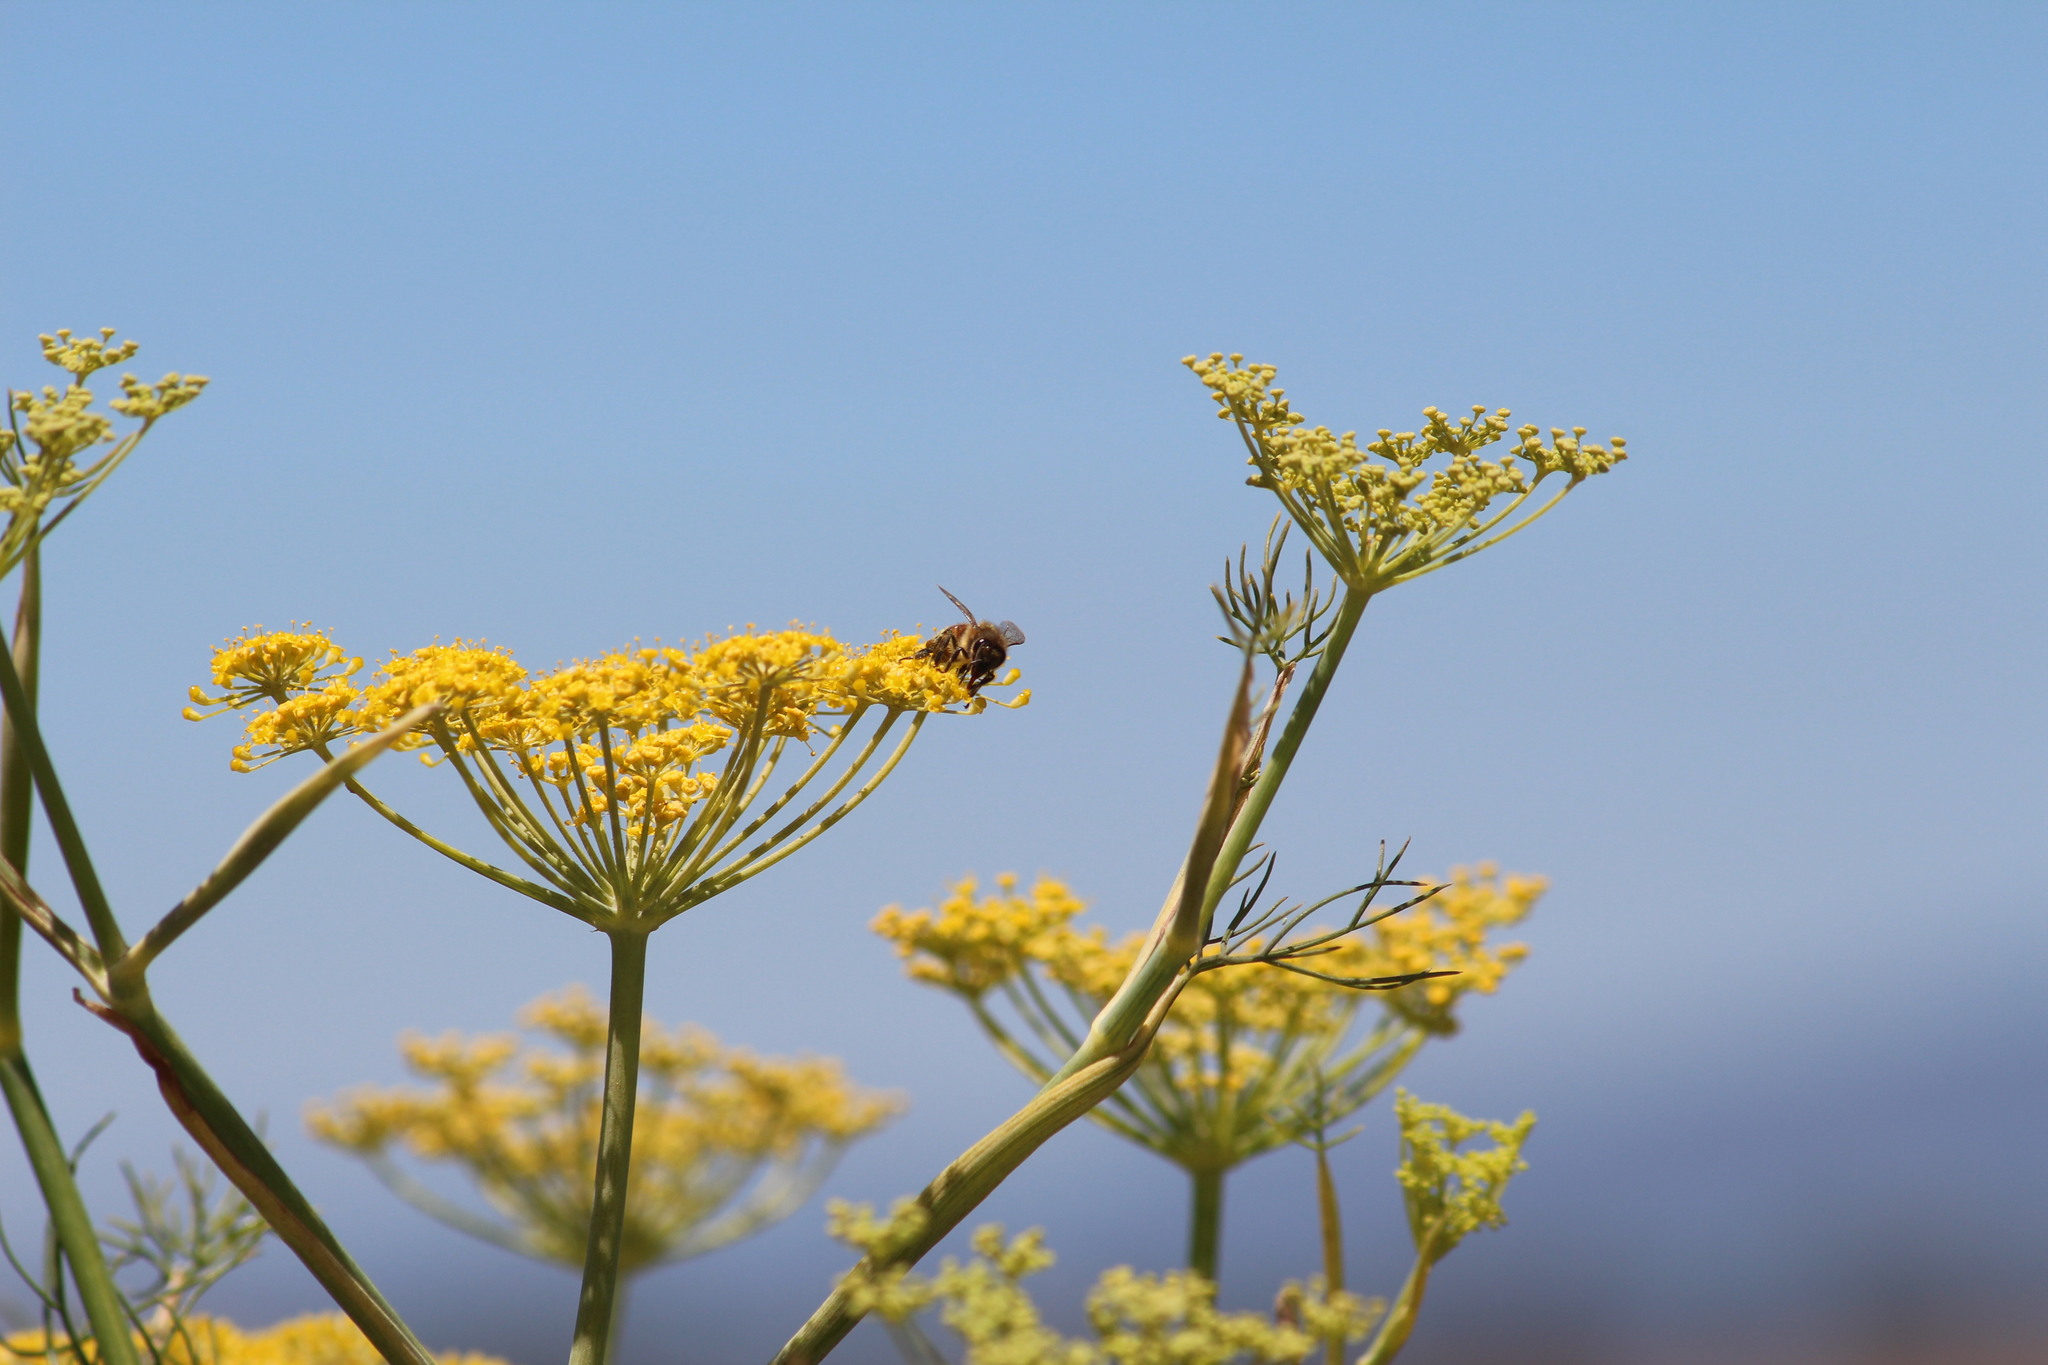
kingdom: Animalia
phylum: Arthropoda
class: Insecta
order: Hymenoptera
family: Apidae
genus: Apis
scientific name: Apis mellifera
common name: Honey bee
